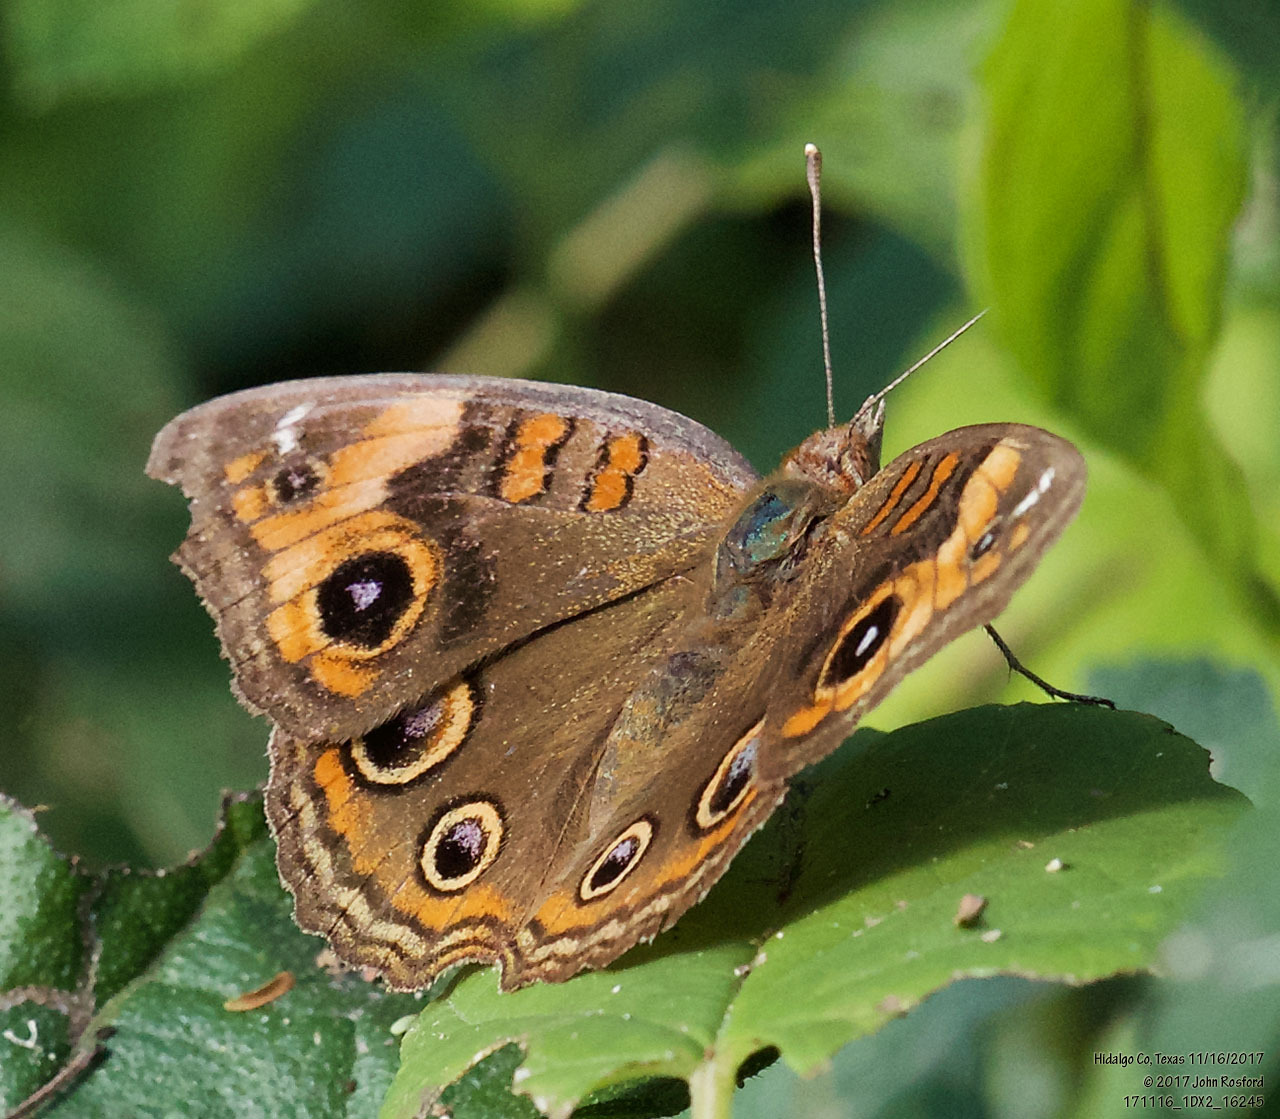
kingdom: Animalia
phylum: Arthropoda
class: Insecta
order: Lepidoptera
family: Nymphalidae
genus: Junonia
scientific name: Junonia stemosa
